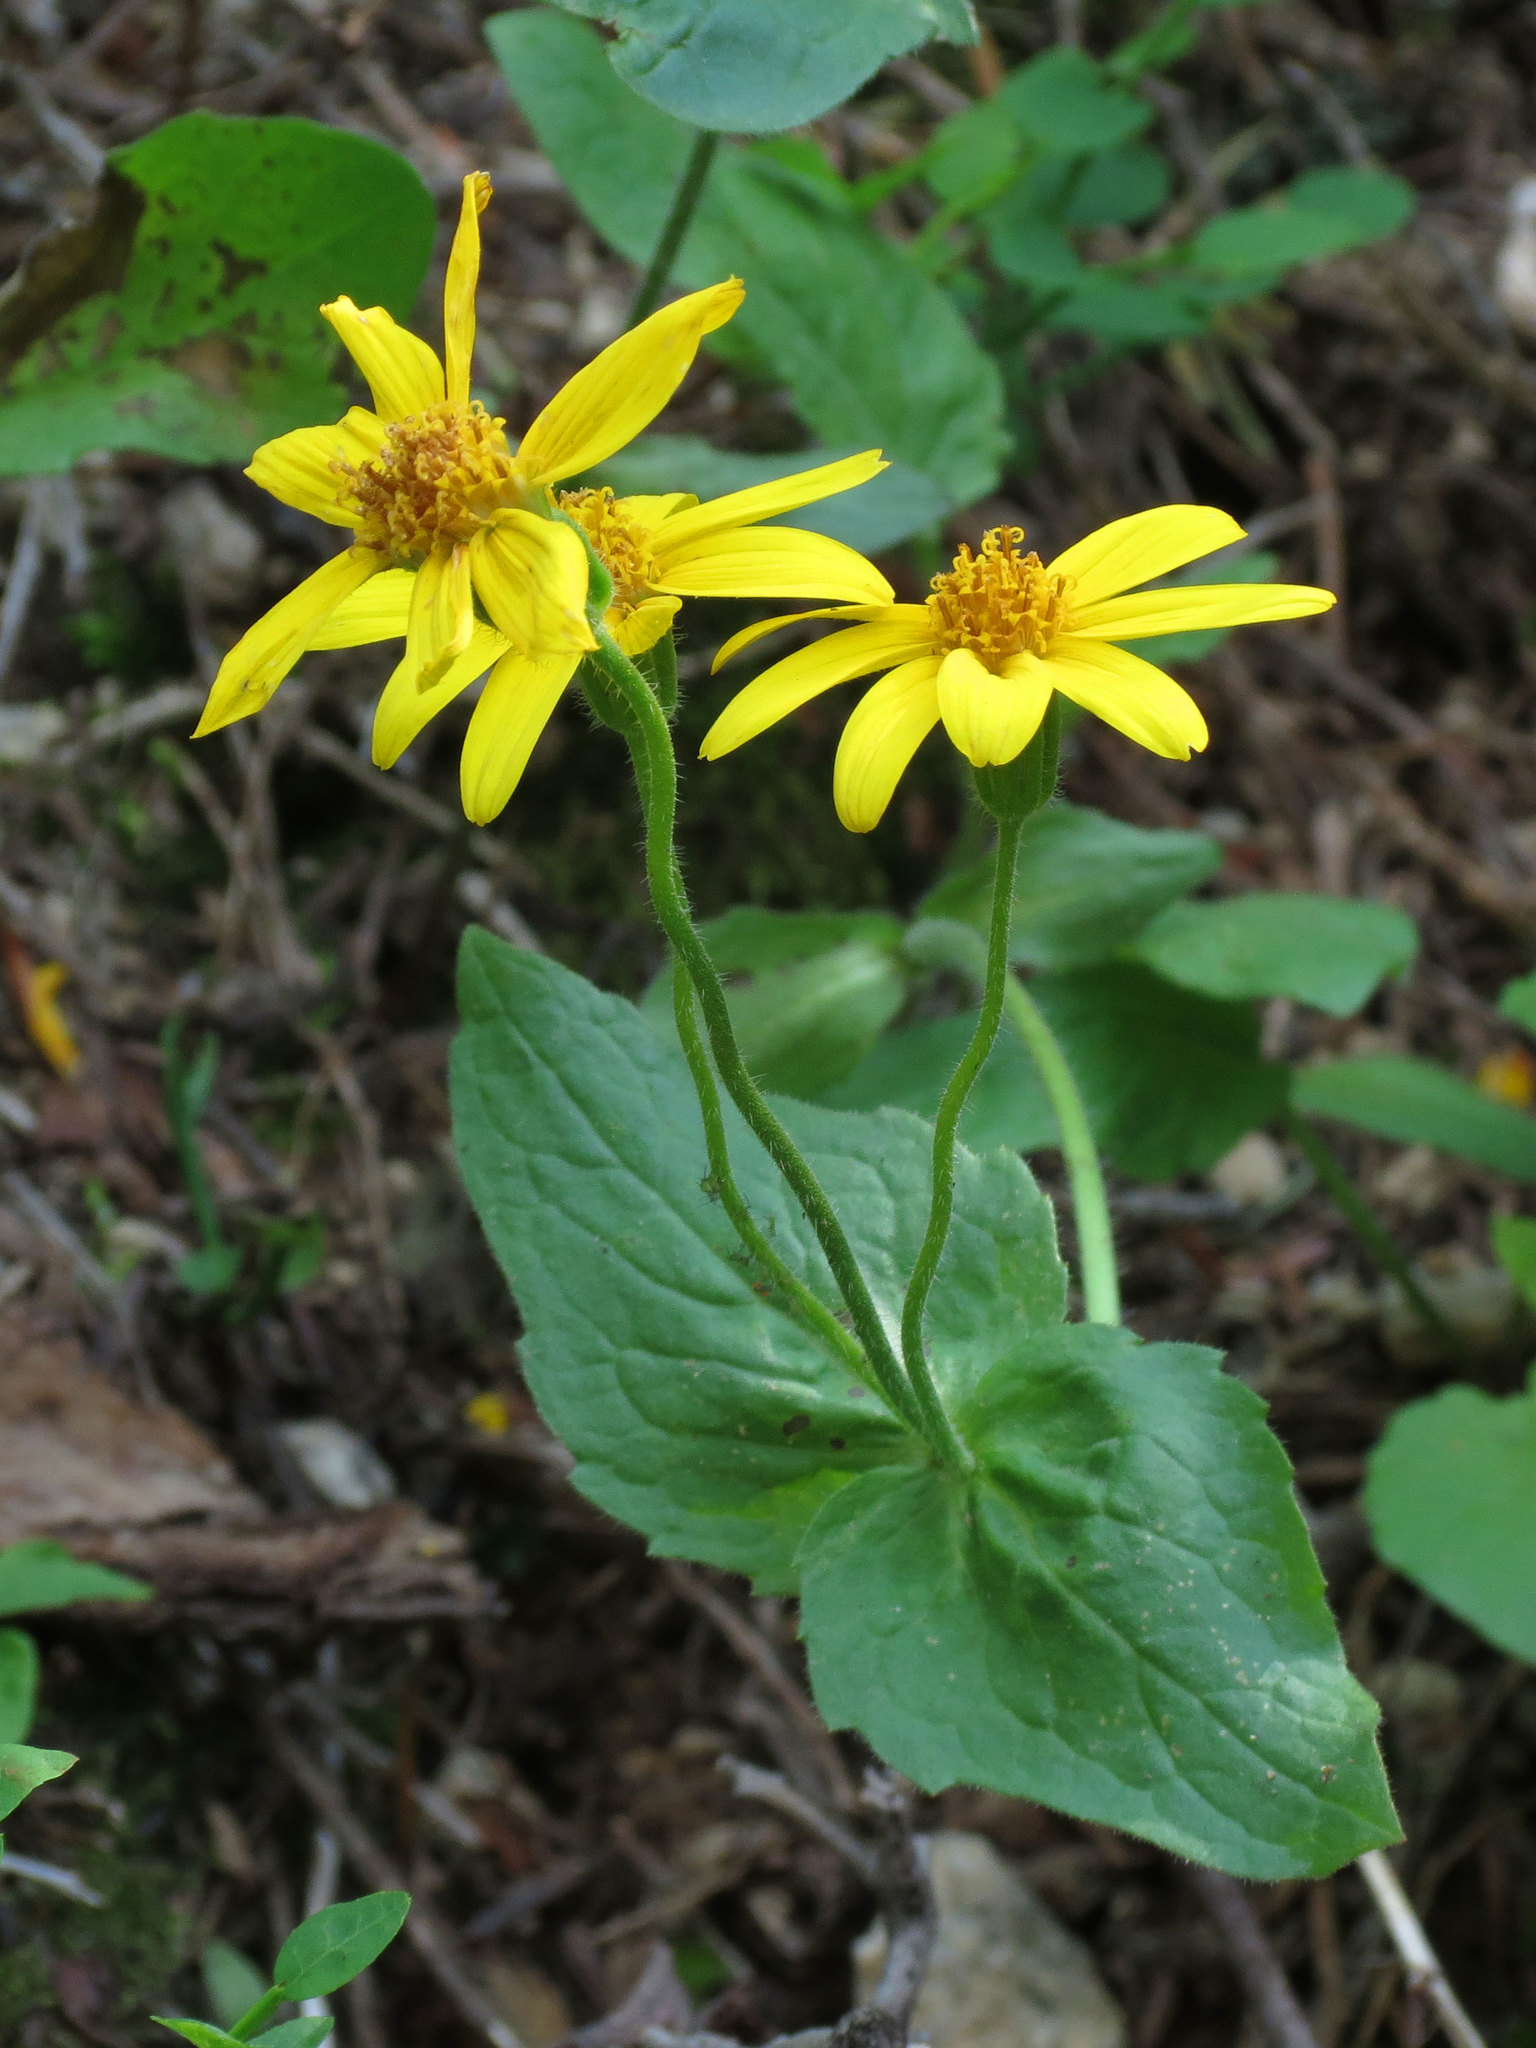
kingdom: Plantae
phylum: Tracheophyta
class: Magnoliopsida
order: Asterales
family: Asteraceae
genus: Arnica
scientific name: Arnica latifolia
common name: Arnica
